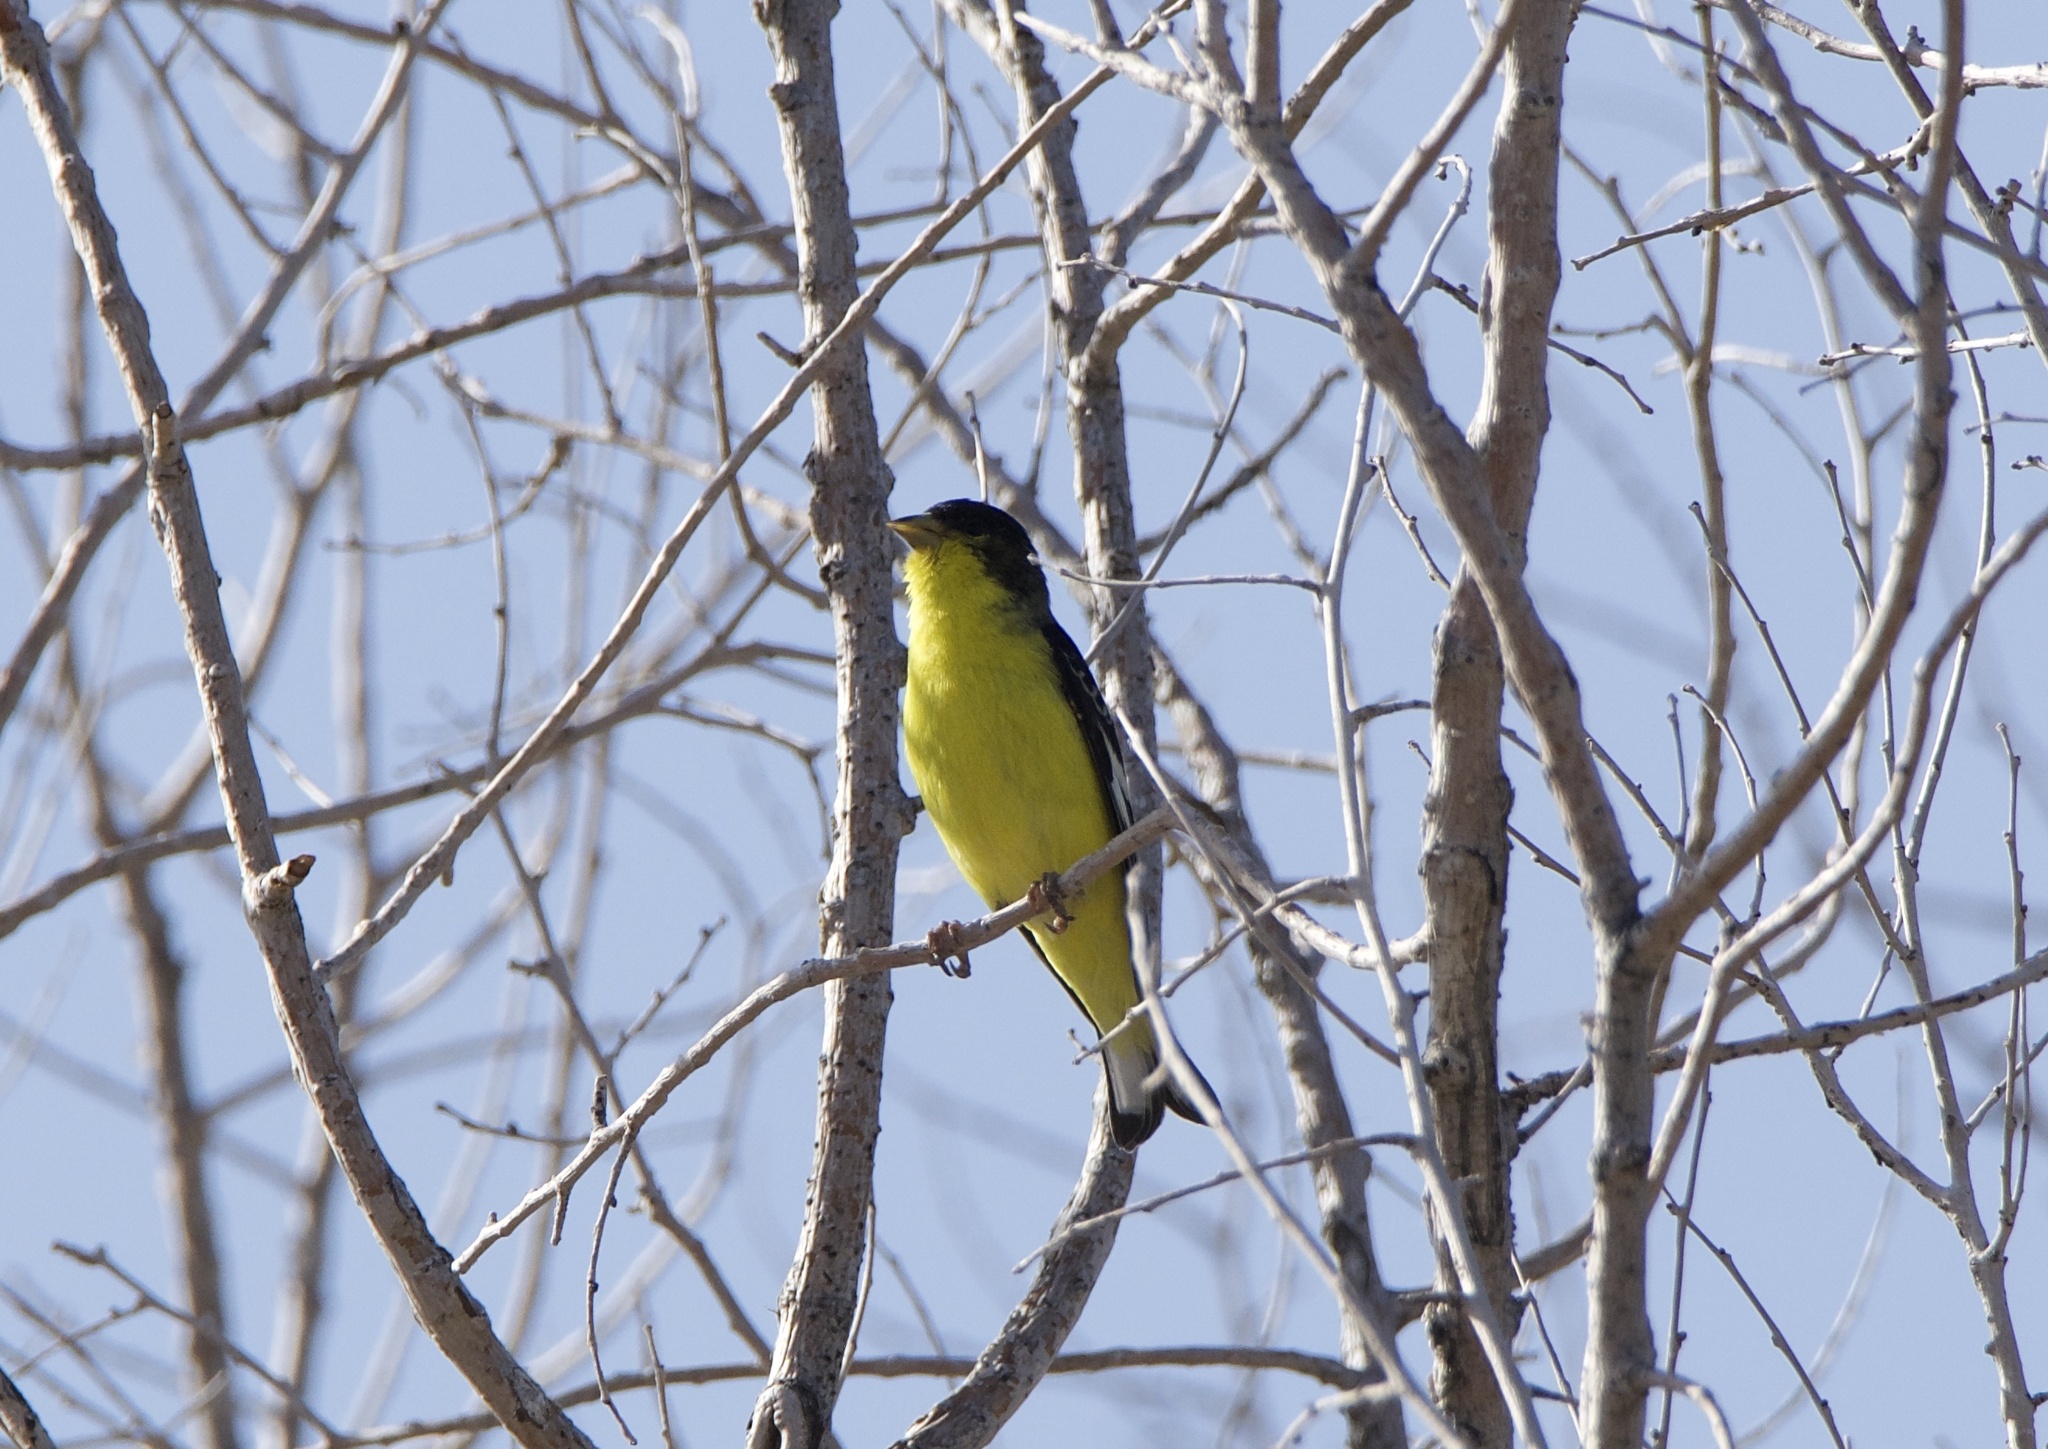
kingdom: Animalia
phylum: Chordata
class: Aves
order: Passeriformes
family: Fringillidae
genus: Spinus
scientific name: Spinus psaltria
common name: Lesser goldfinch
